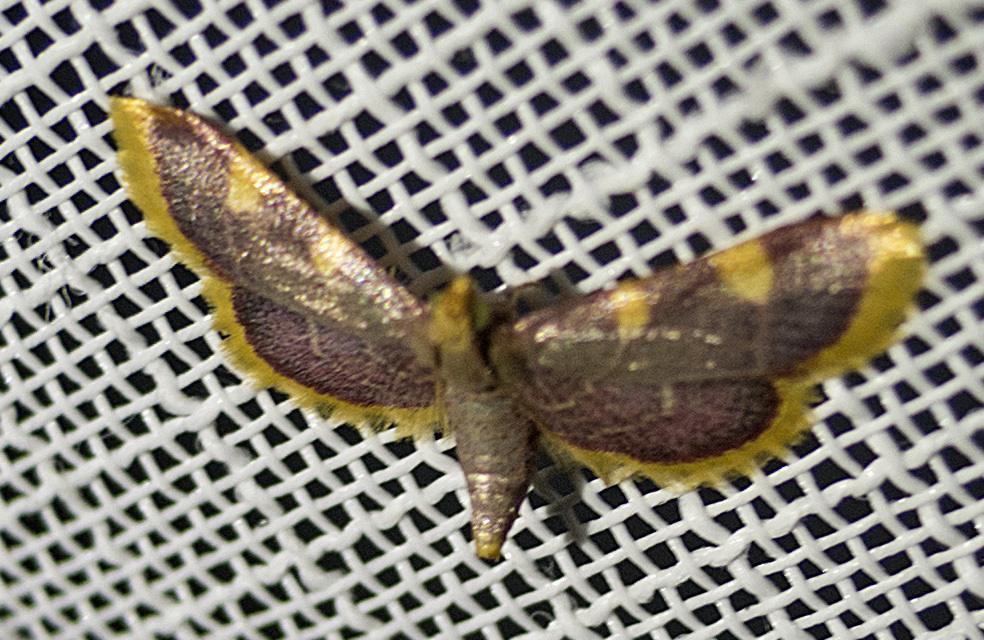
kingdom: Animalia
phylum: Arthropoda
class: Insecta
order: Lepidoptera
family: Pyralidae
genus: Hypsopygia
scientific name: Hypsopygia costalis
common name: Gold triangle
